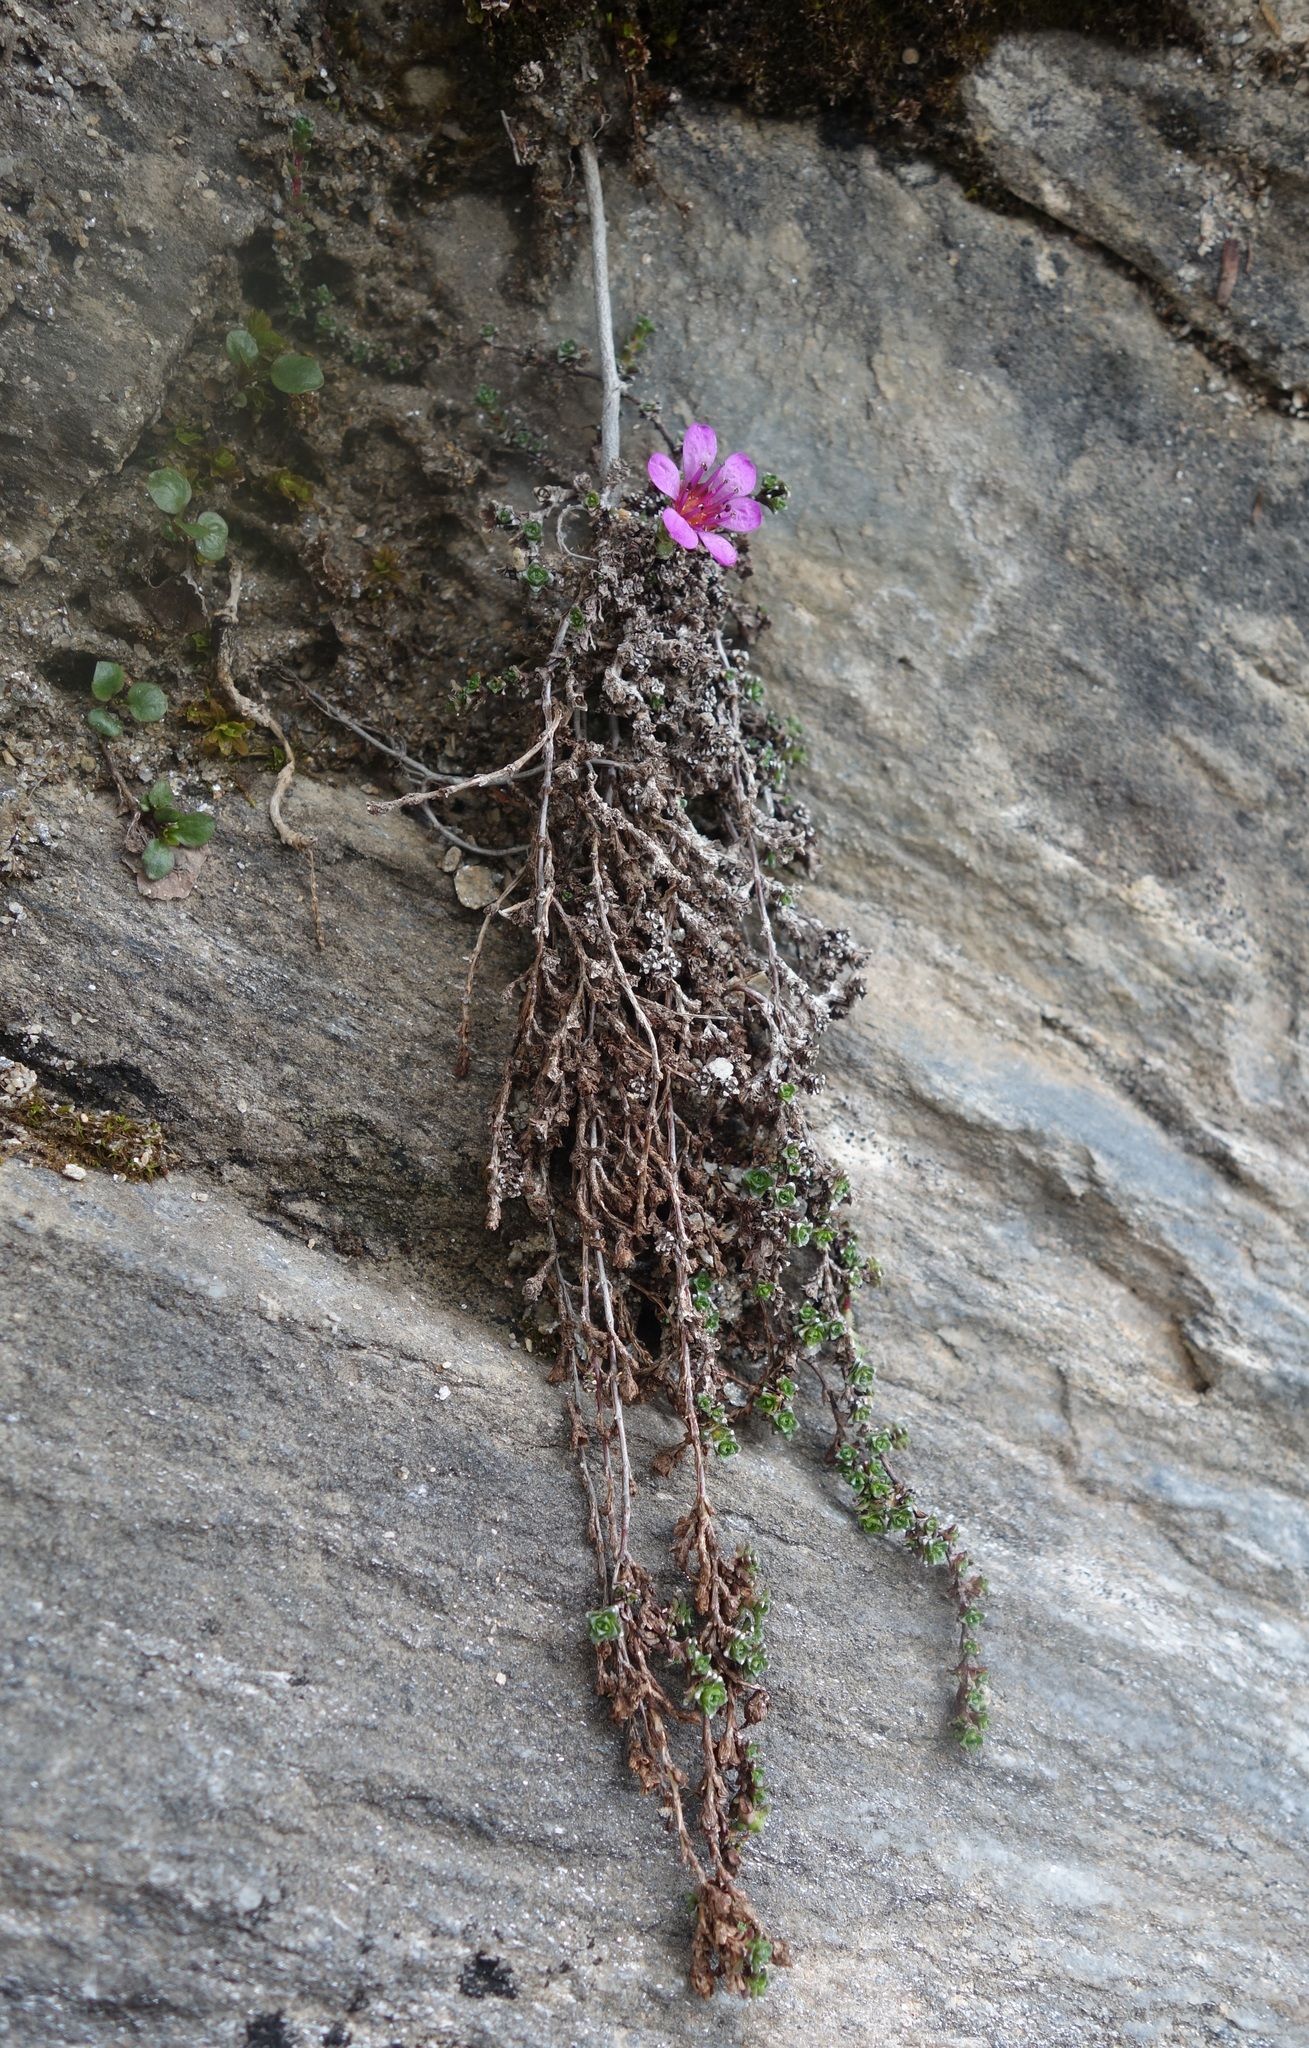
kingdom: Plantae
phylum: Tracheophyta
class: Magnoliopsida
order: Saxifragales
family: Saxifragaceae
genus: Saxifraga
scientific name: Saxifraga oppositifolia
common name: Purple saxifrage
